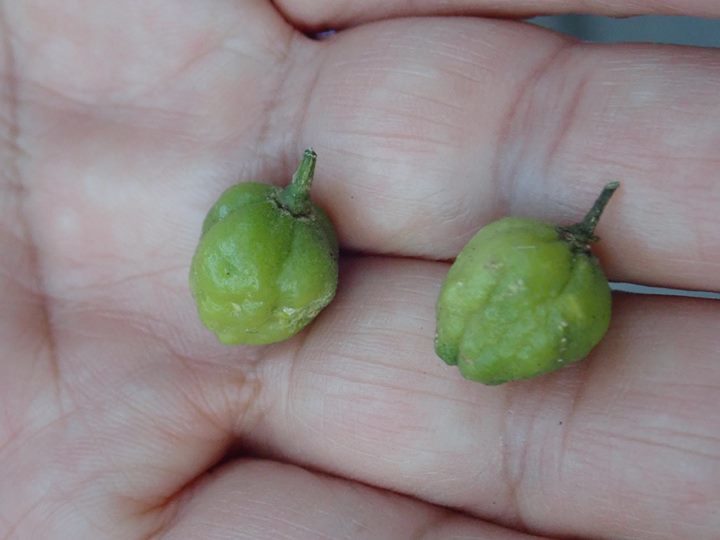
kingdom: Plantae
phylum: Tracheophyta
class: Magnoliopsida
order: Sapindales
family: Rutaceae
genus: Acronychia
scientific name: Acronychia pedunculata
